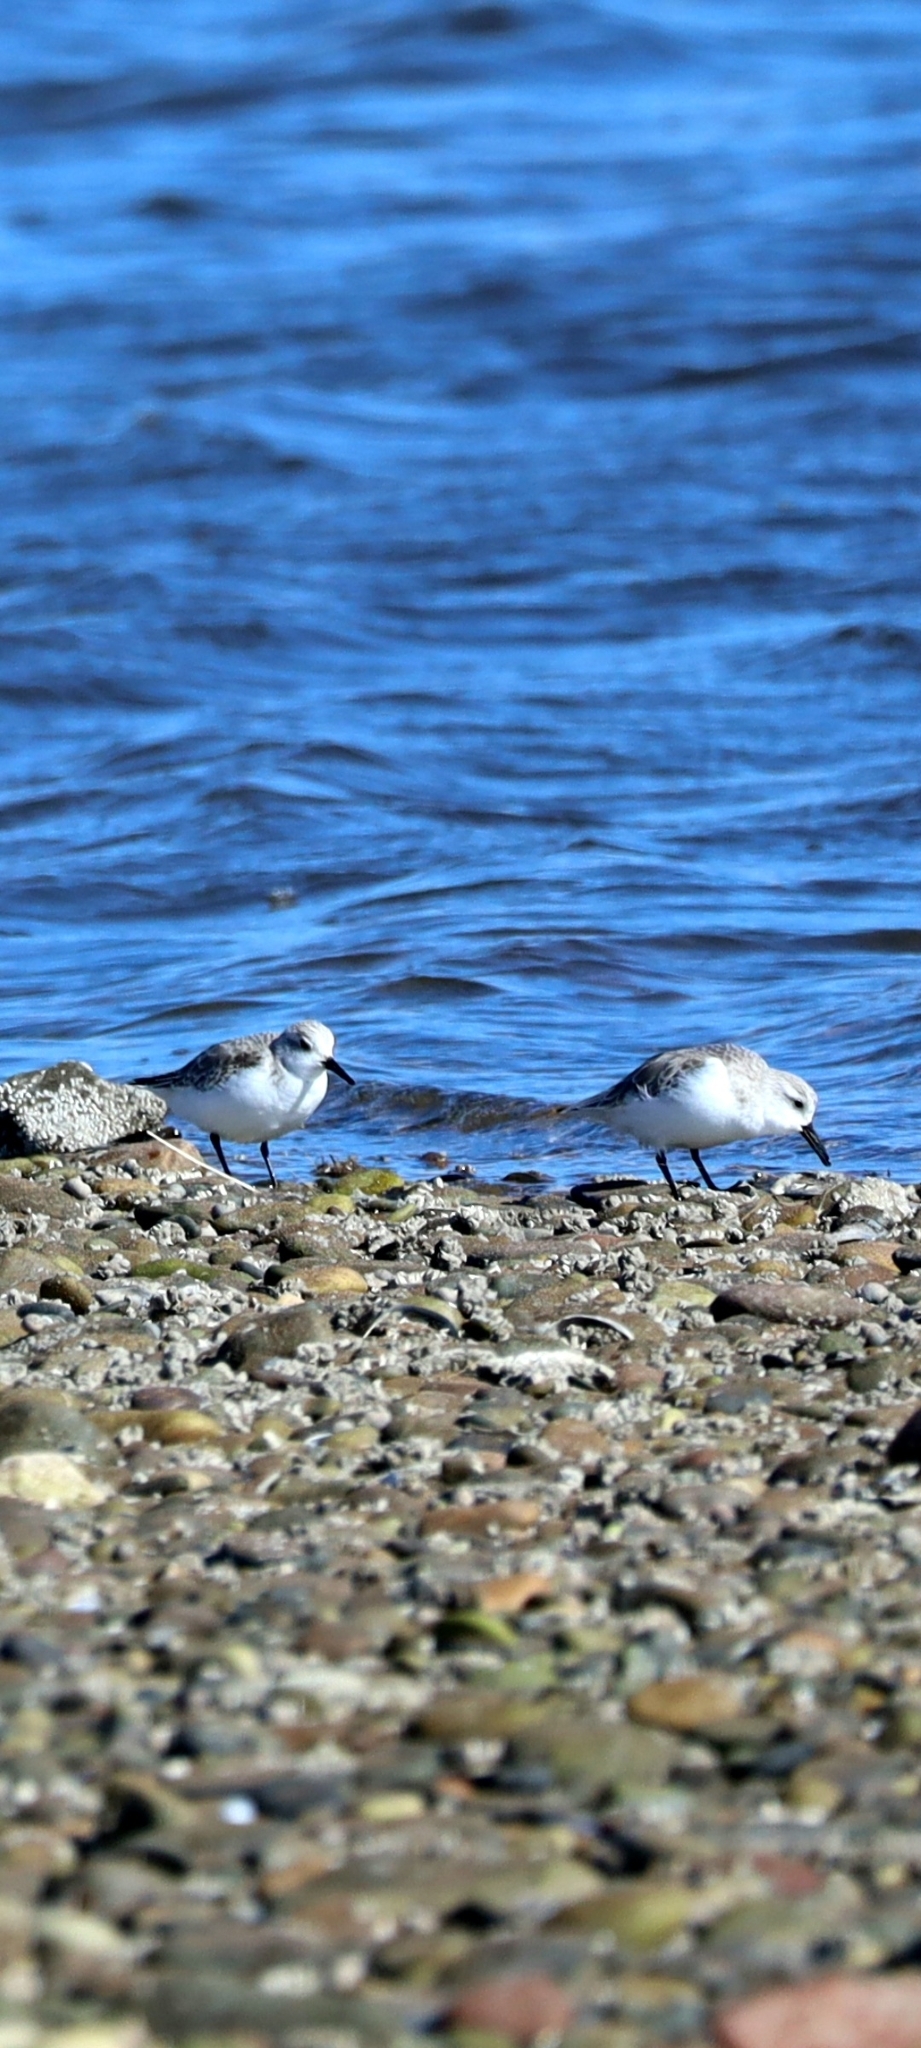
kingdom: Animalia
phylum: Chordata
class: Aves
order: Charadriiformes
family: Scolopacidae
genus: Calidris
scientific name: Calidris alba
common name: Sanderling
